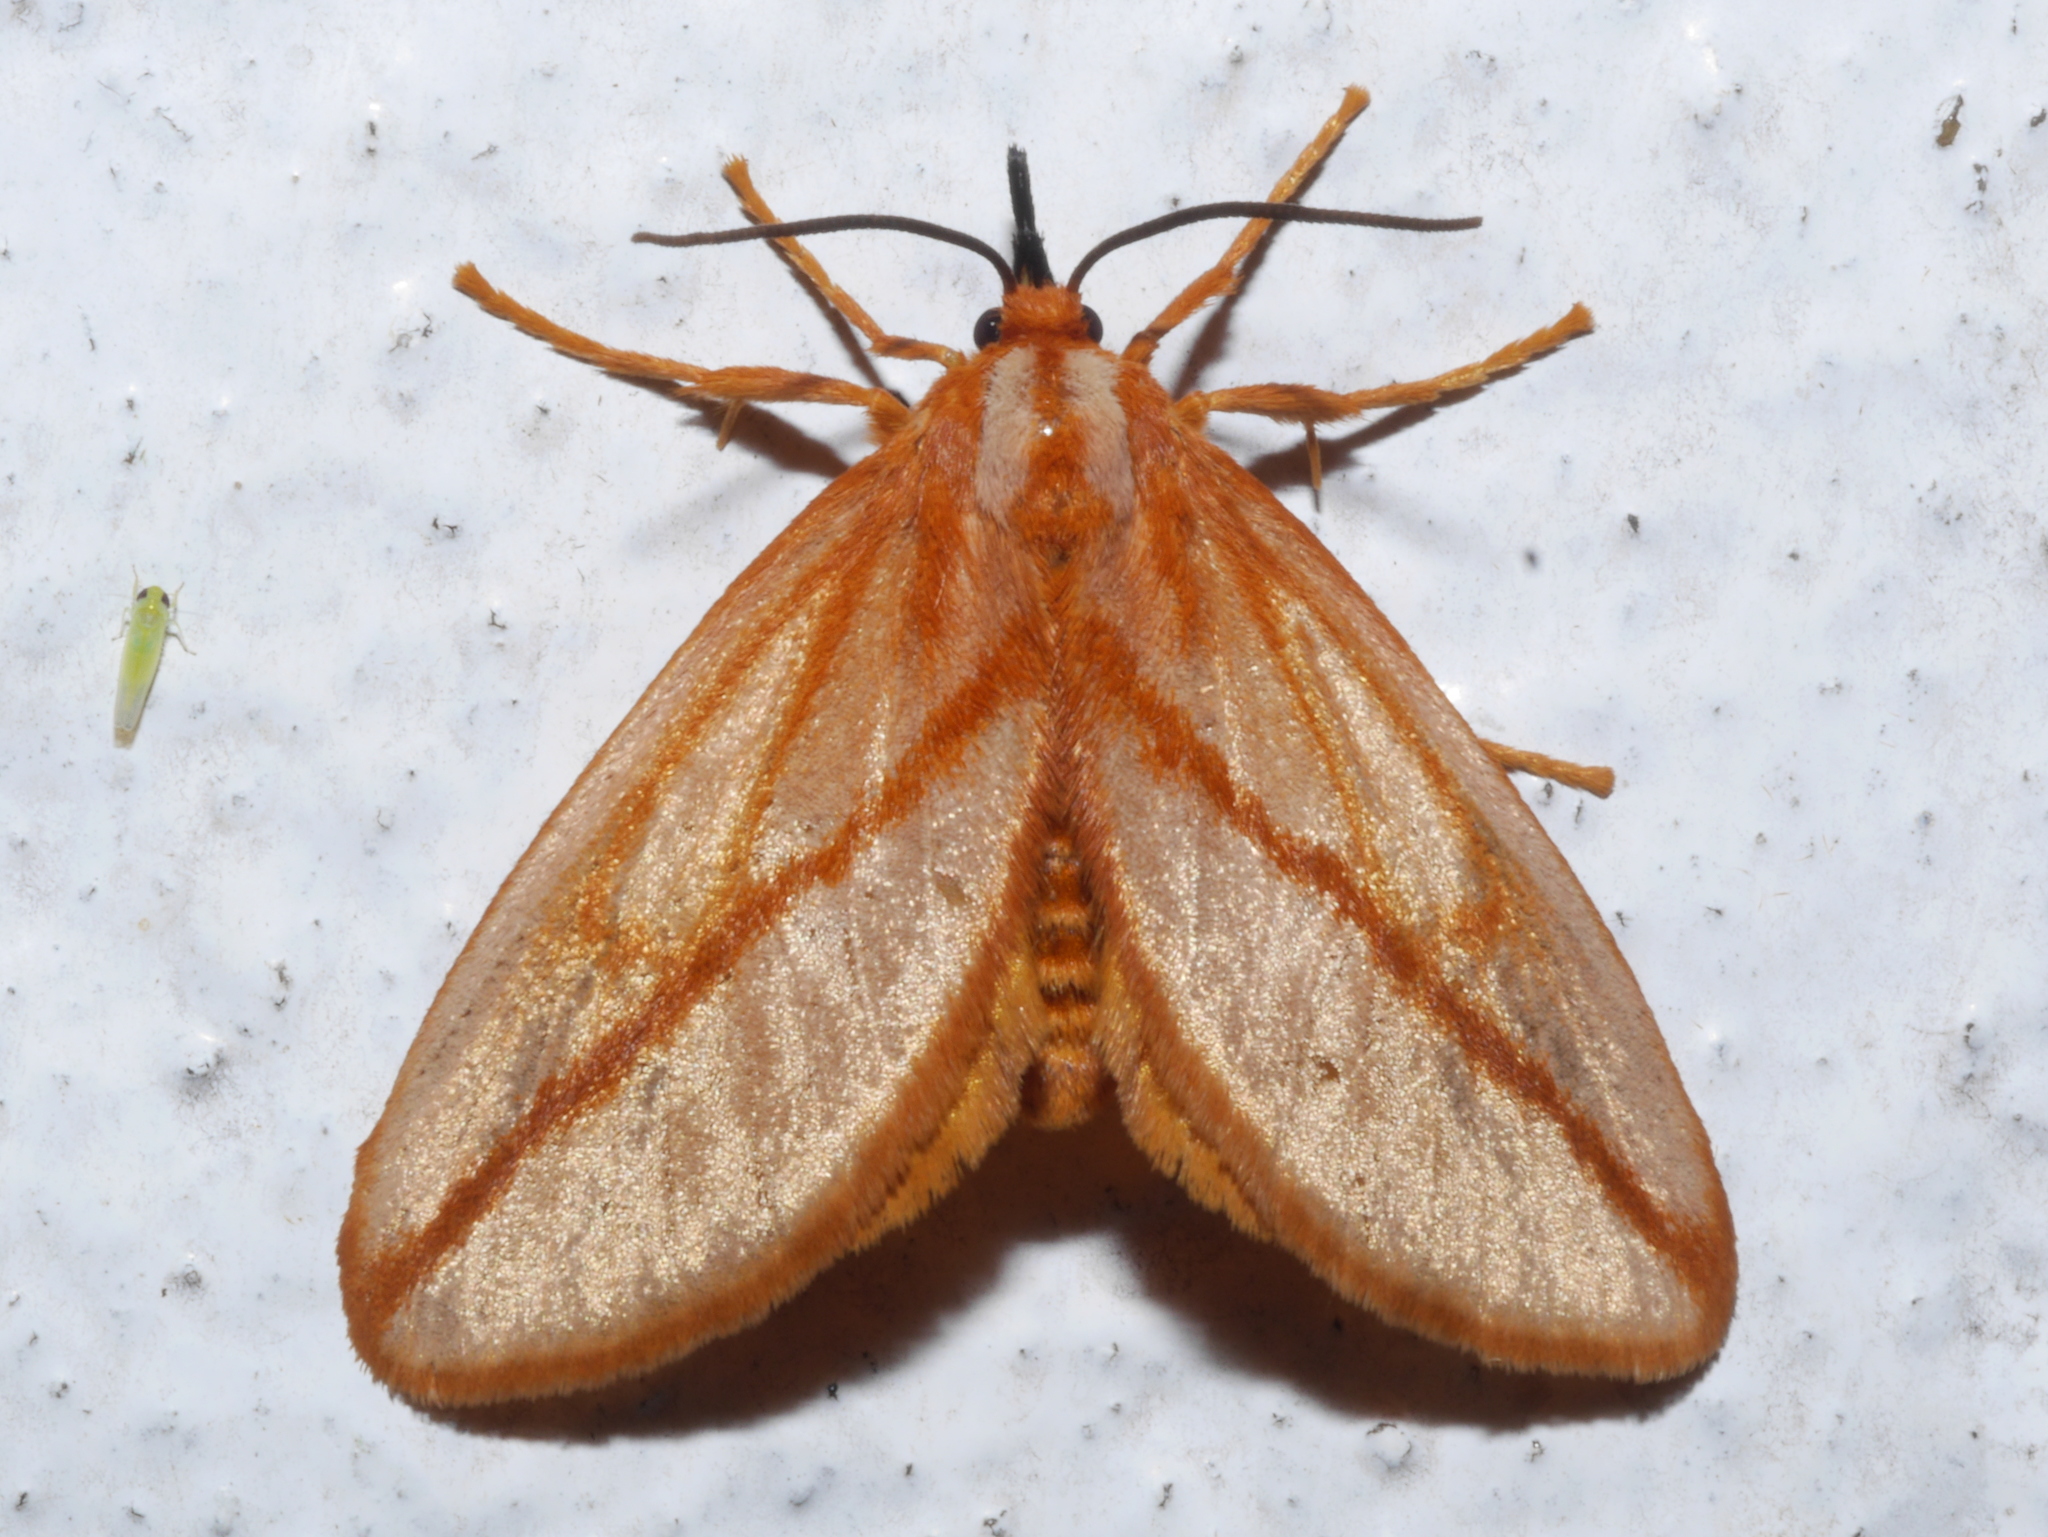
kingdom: Animalia
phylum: Arthropoda
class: Insecta
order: Lepidoptera
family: Limacodidae
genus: Hadraphe
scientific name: Hadraphe aprica
